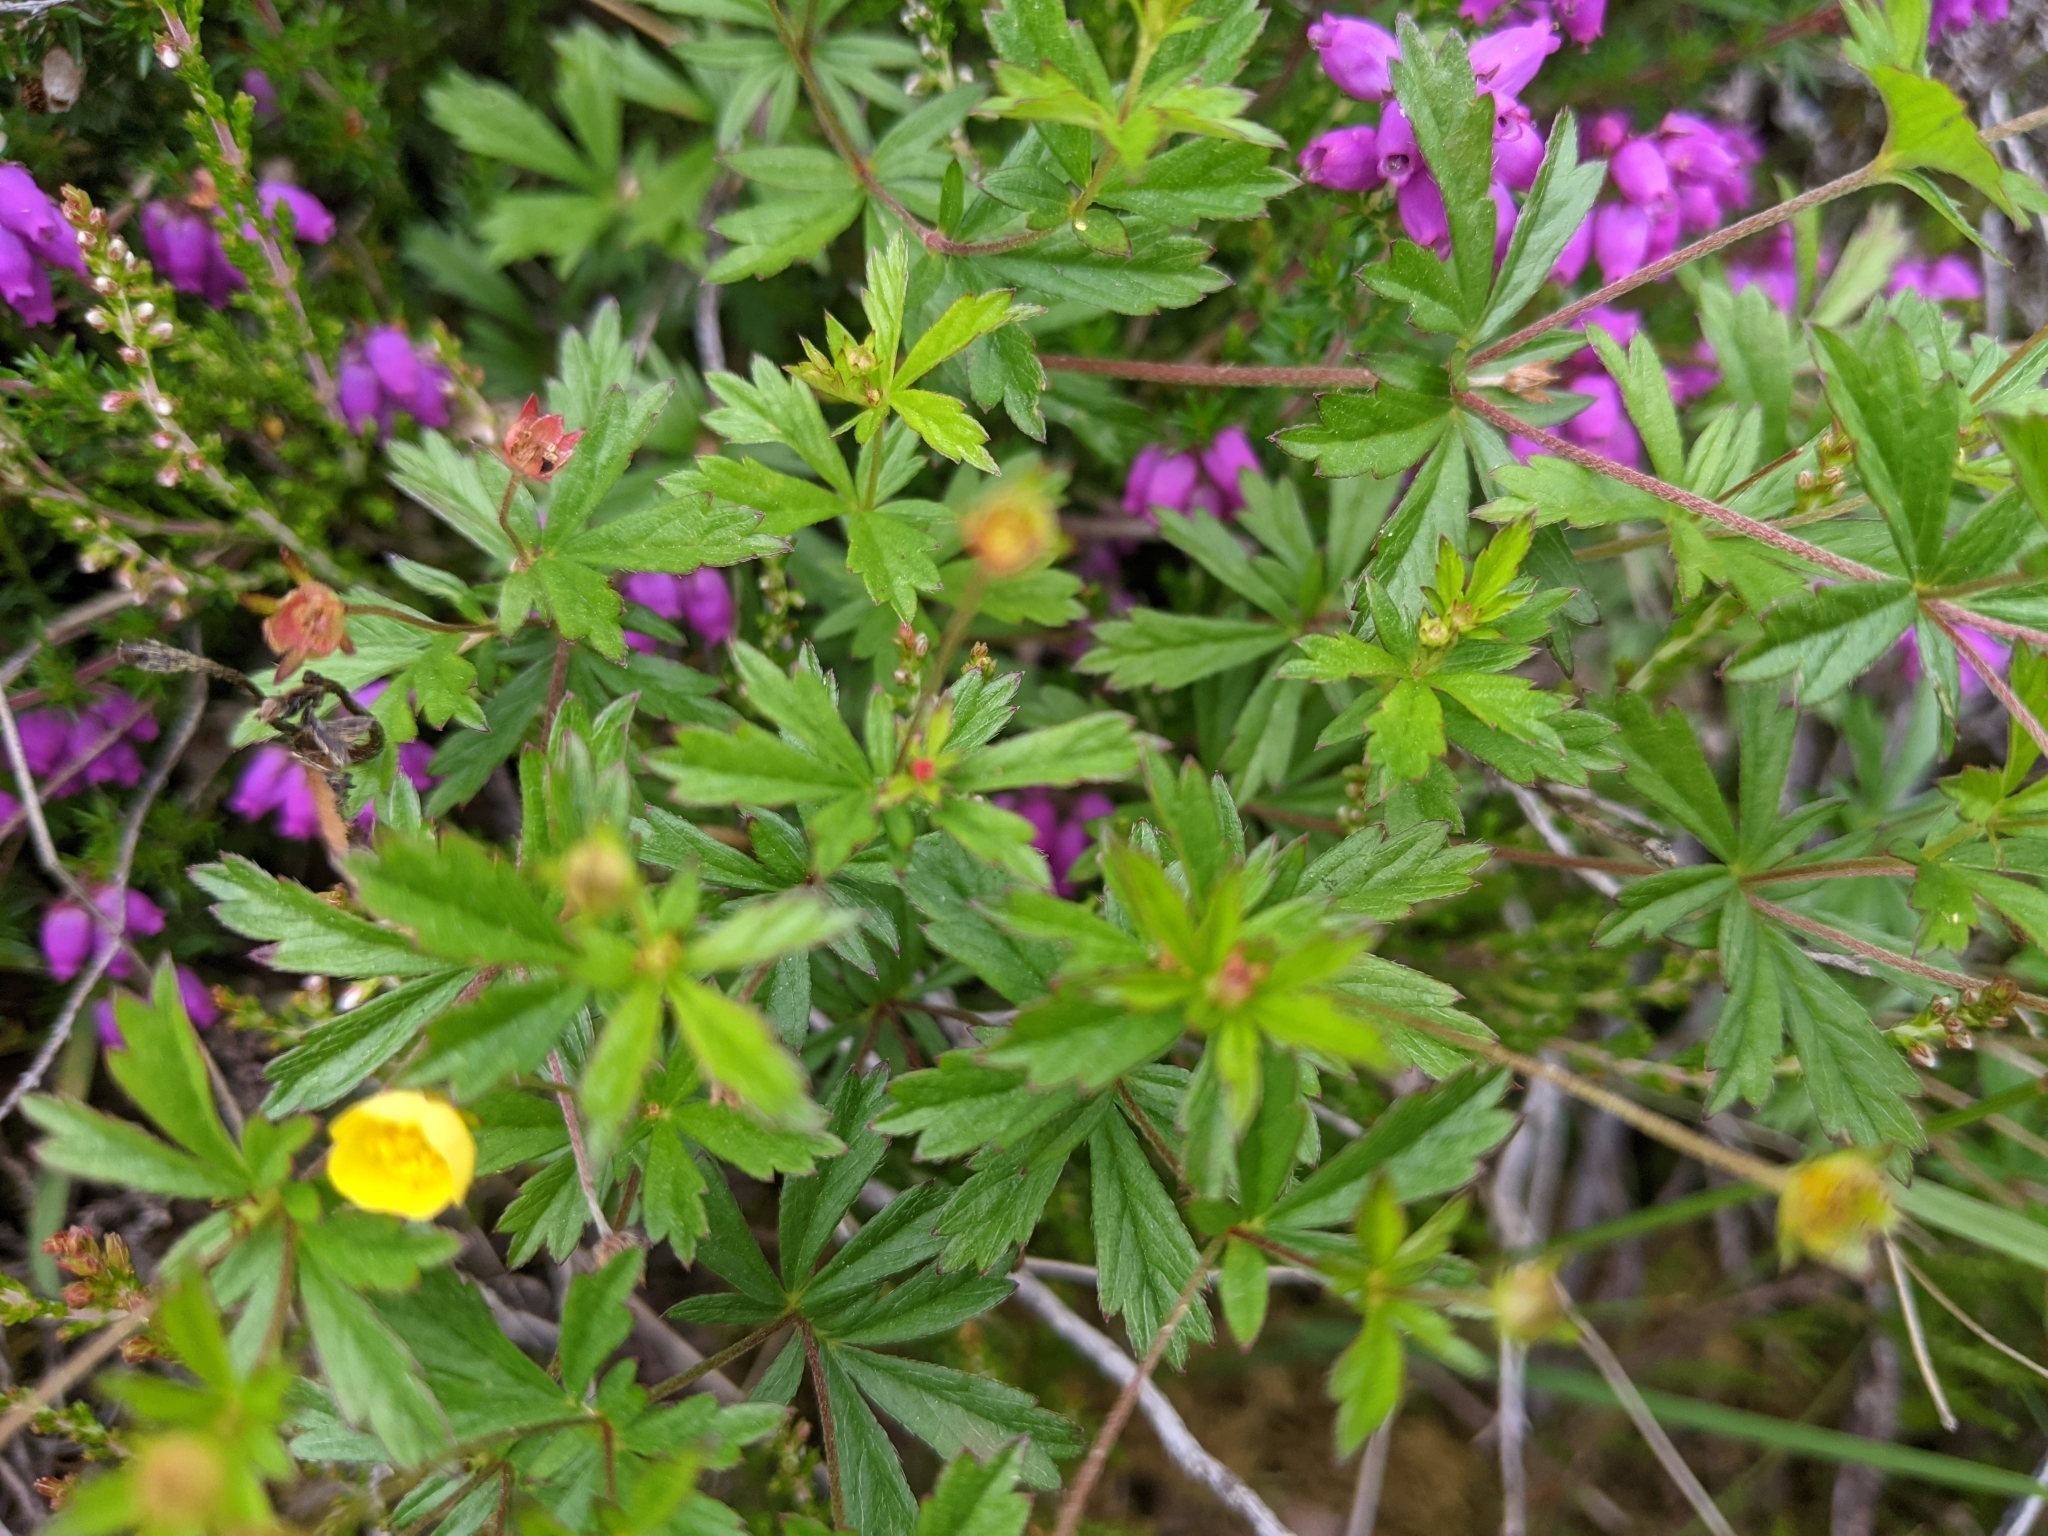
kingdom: Plantae
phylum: Tracheophyta
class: Magnoliopsida
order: Rosales
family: Rosaceae
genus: Potentilla
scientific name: Potentilla erecta
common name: Tormentil
